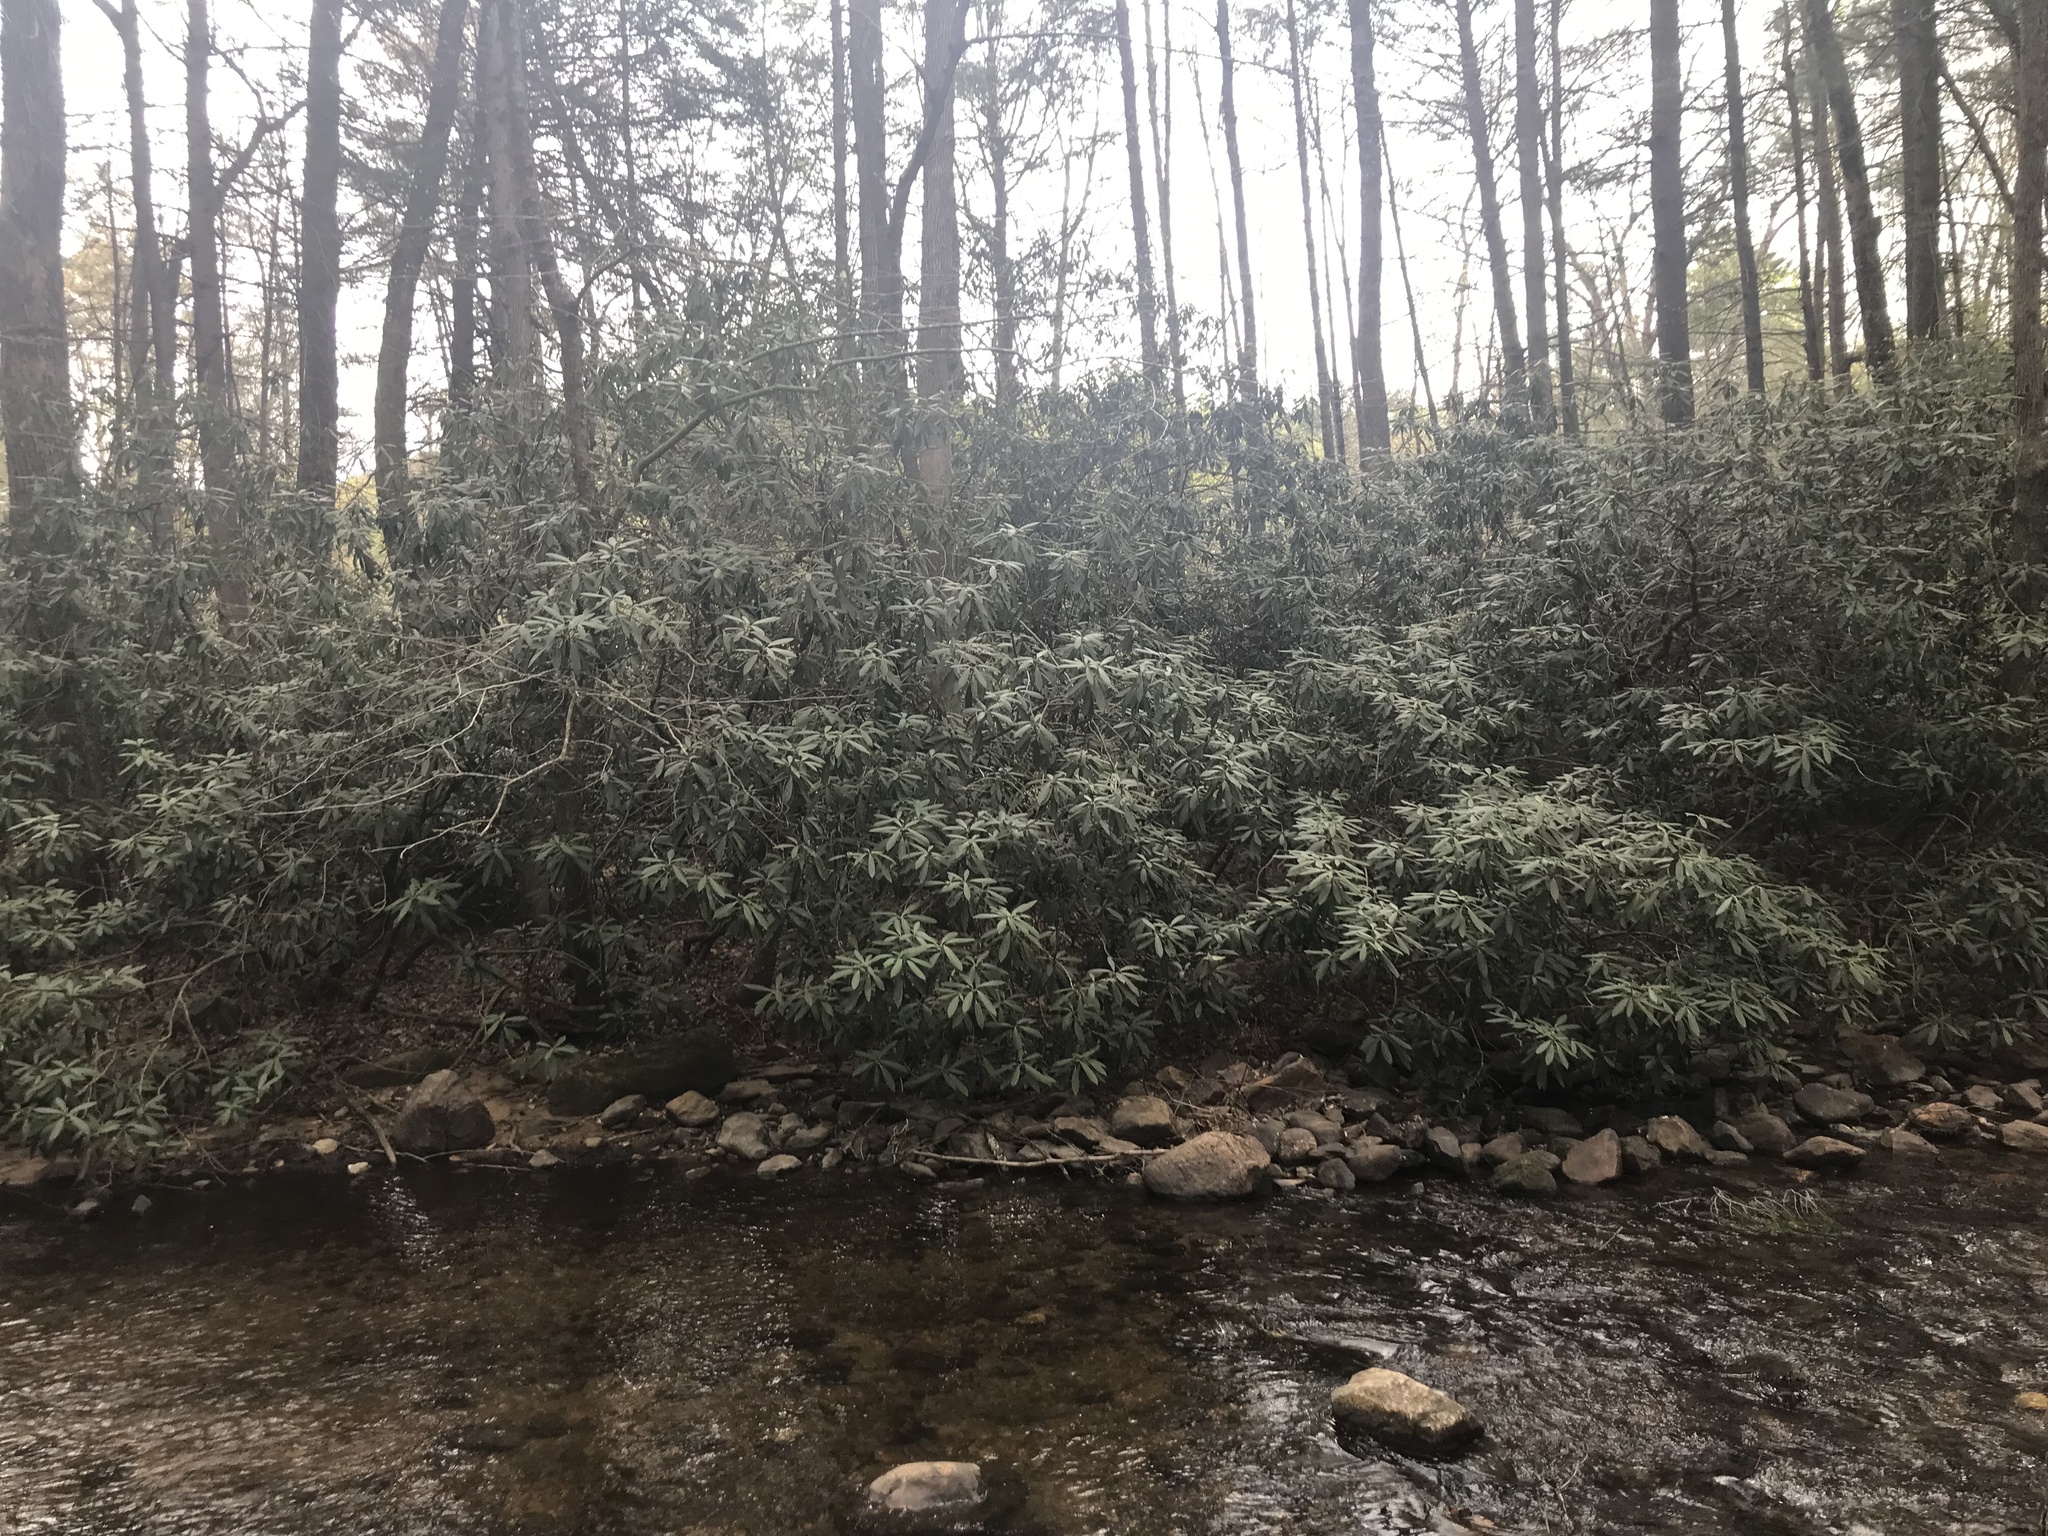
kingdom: Plantae
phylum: Tracheophyta
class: Magnoliopsida
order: Ericales
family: Ericaceae
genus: Rhododendron
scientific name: Rhododendron maximum
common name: Great rhododendron
